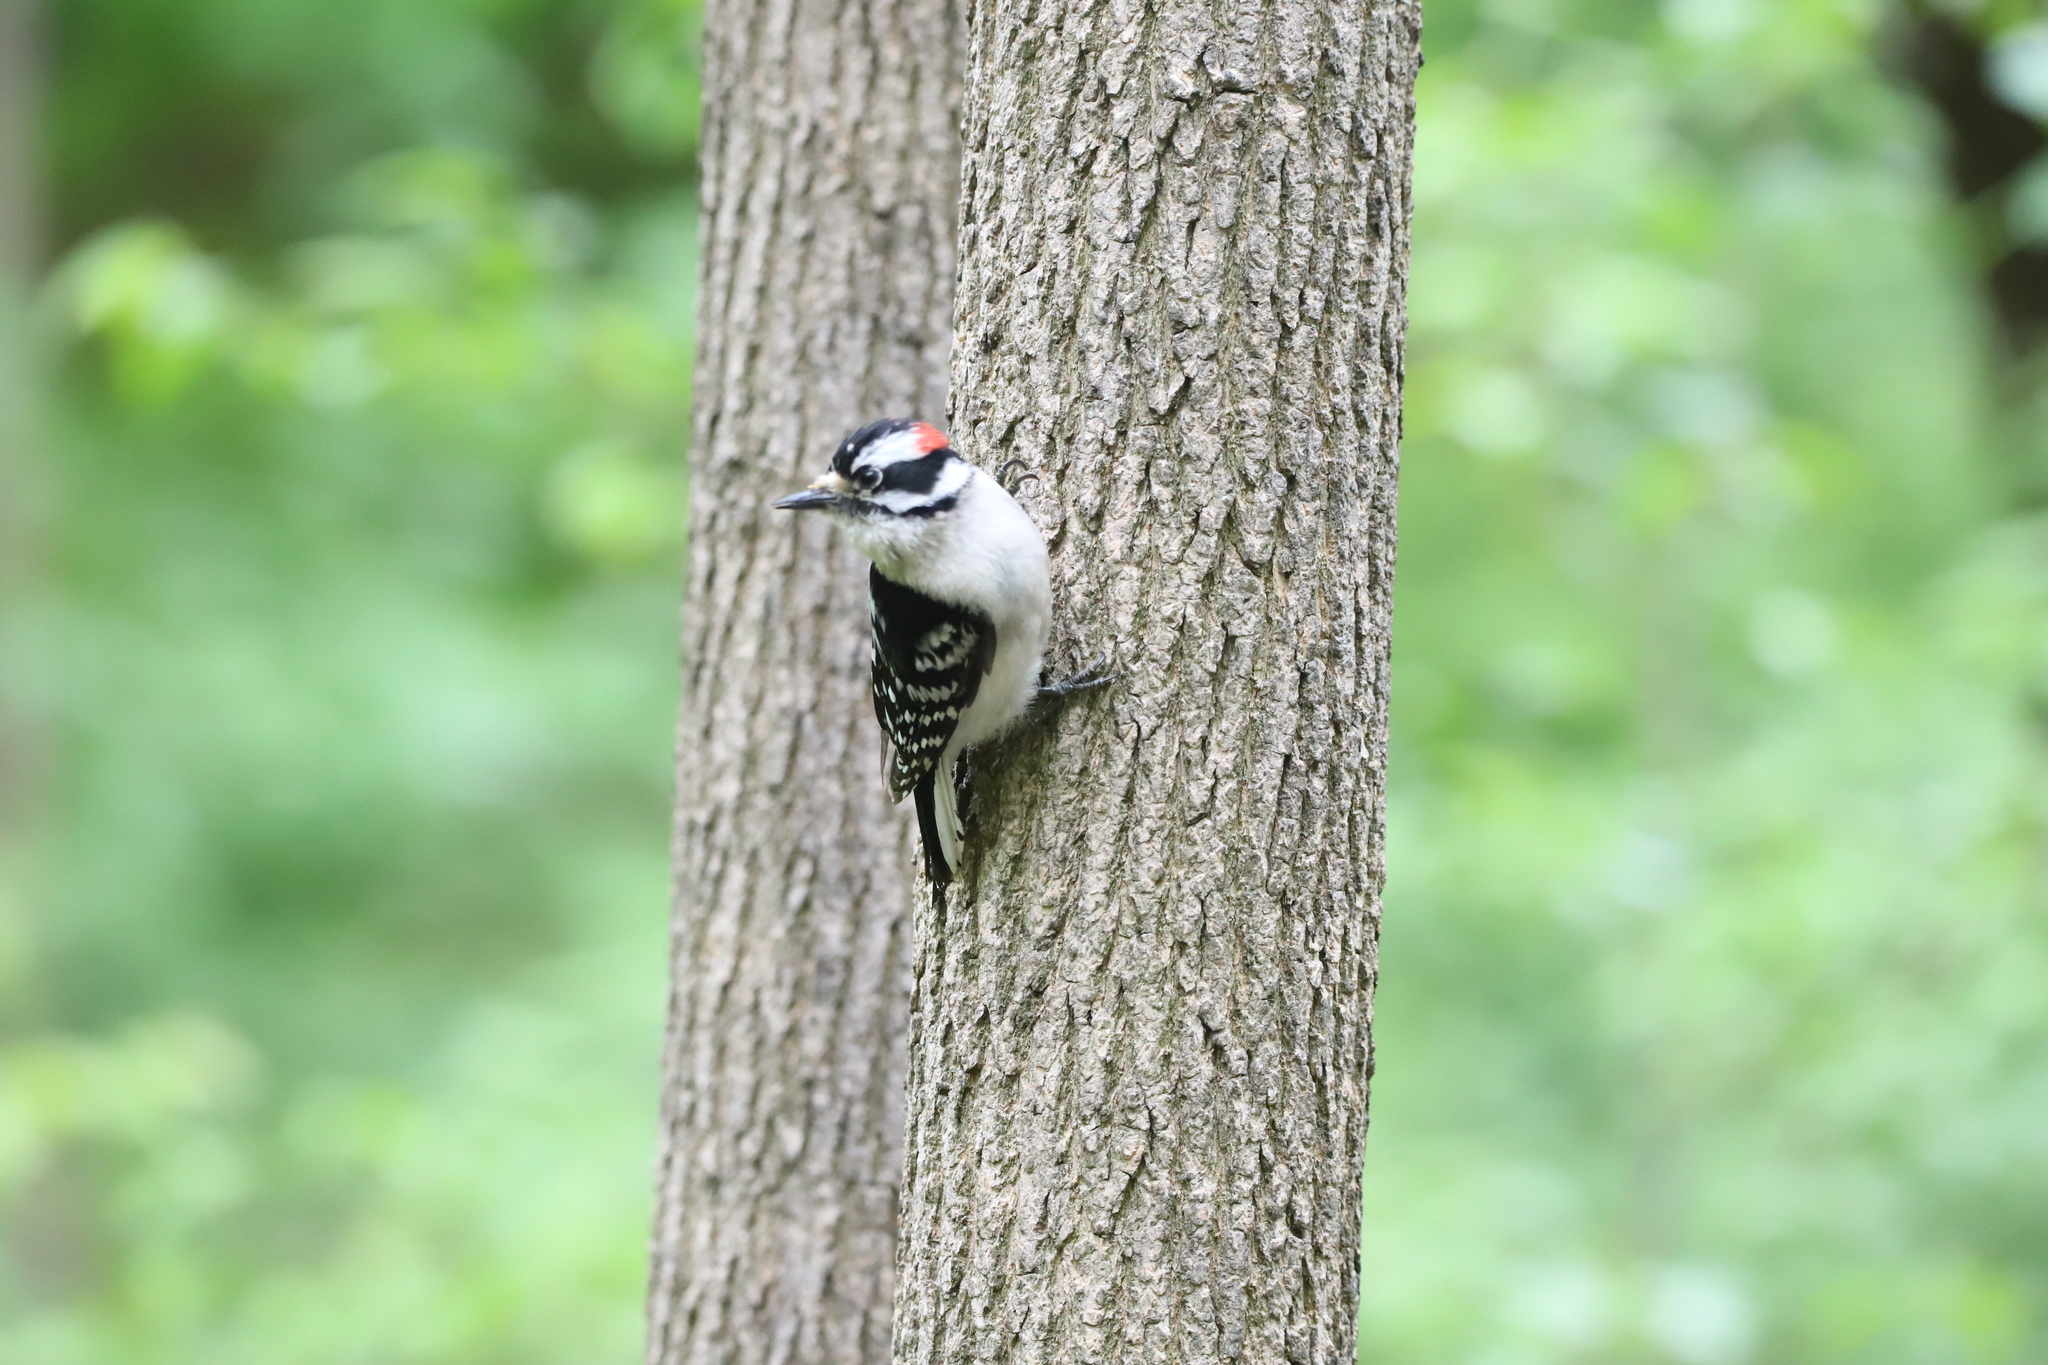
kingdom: Animalia
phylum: Chordata
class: Aves
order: Piciformes
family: Picidae
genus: Dryobates
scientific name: Dryobates pubescens
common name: Downy woodpecker
